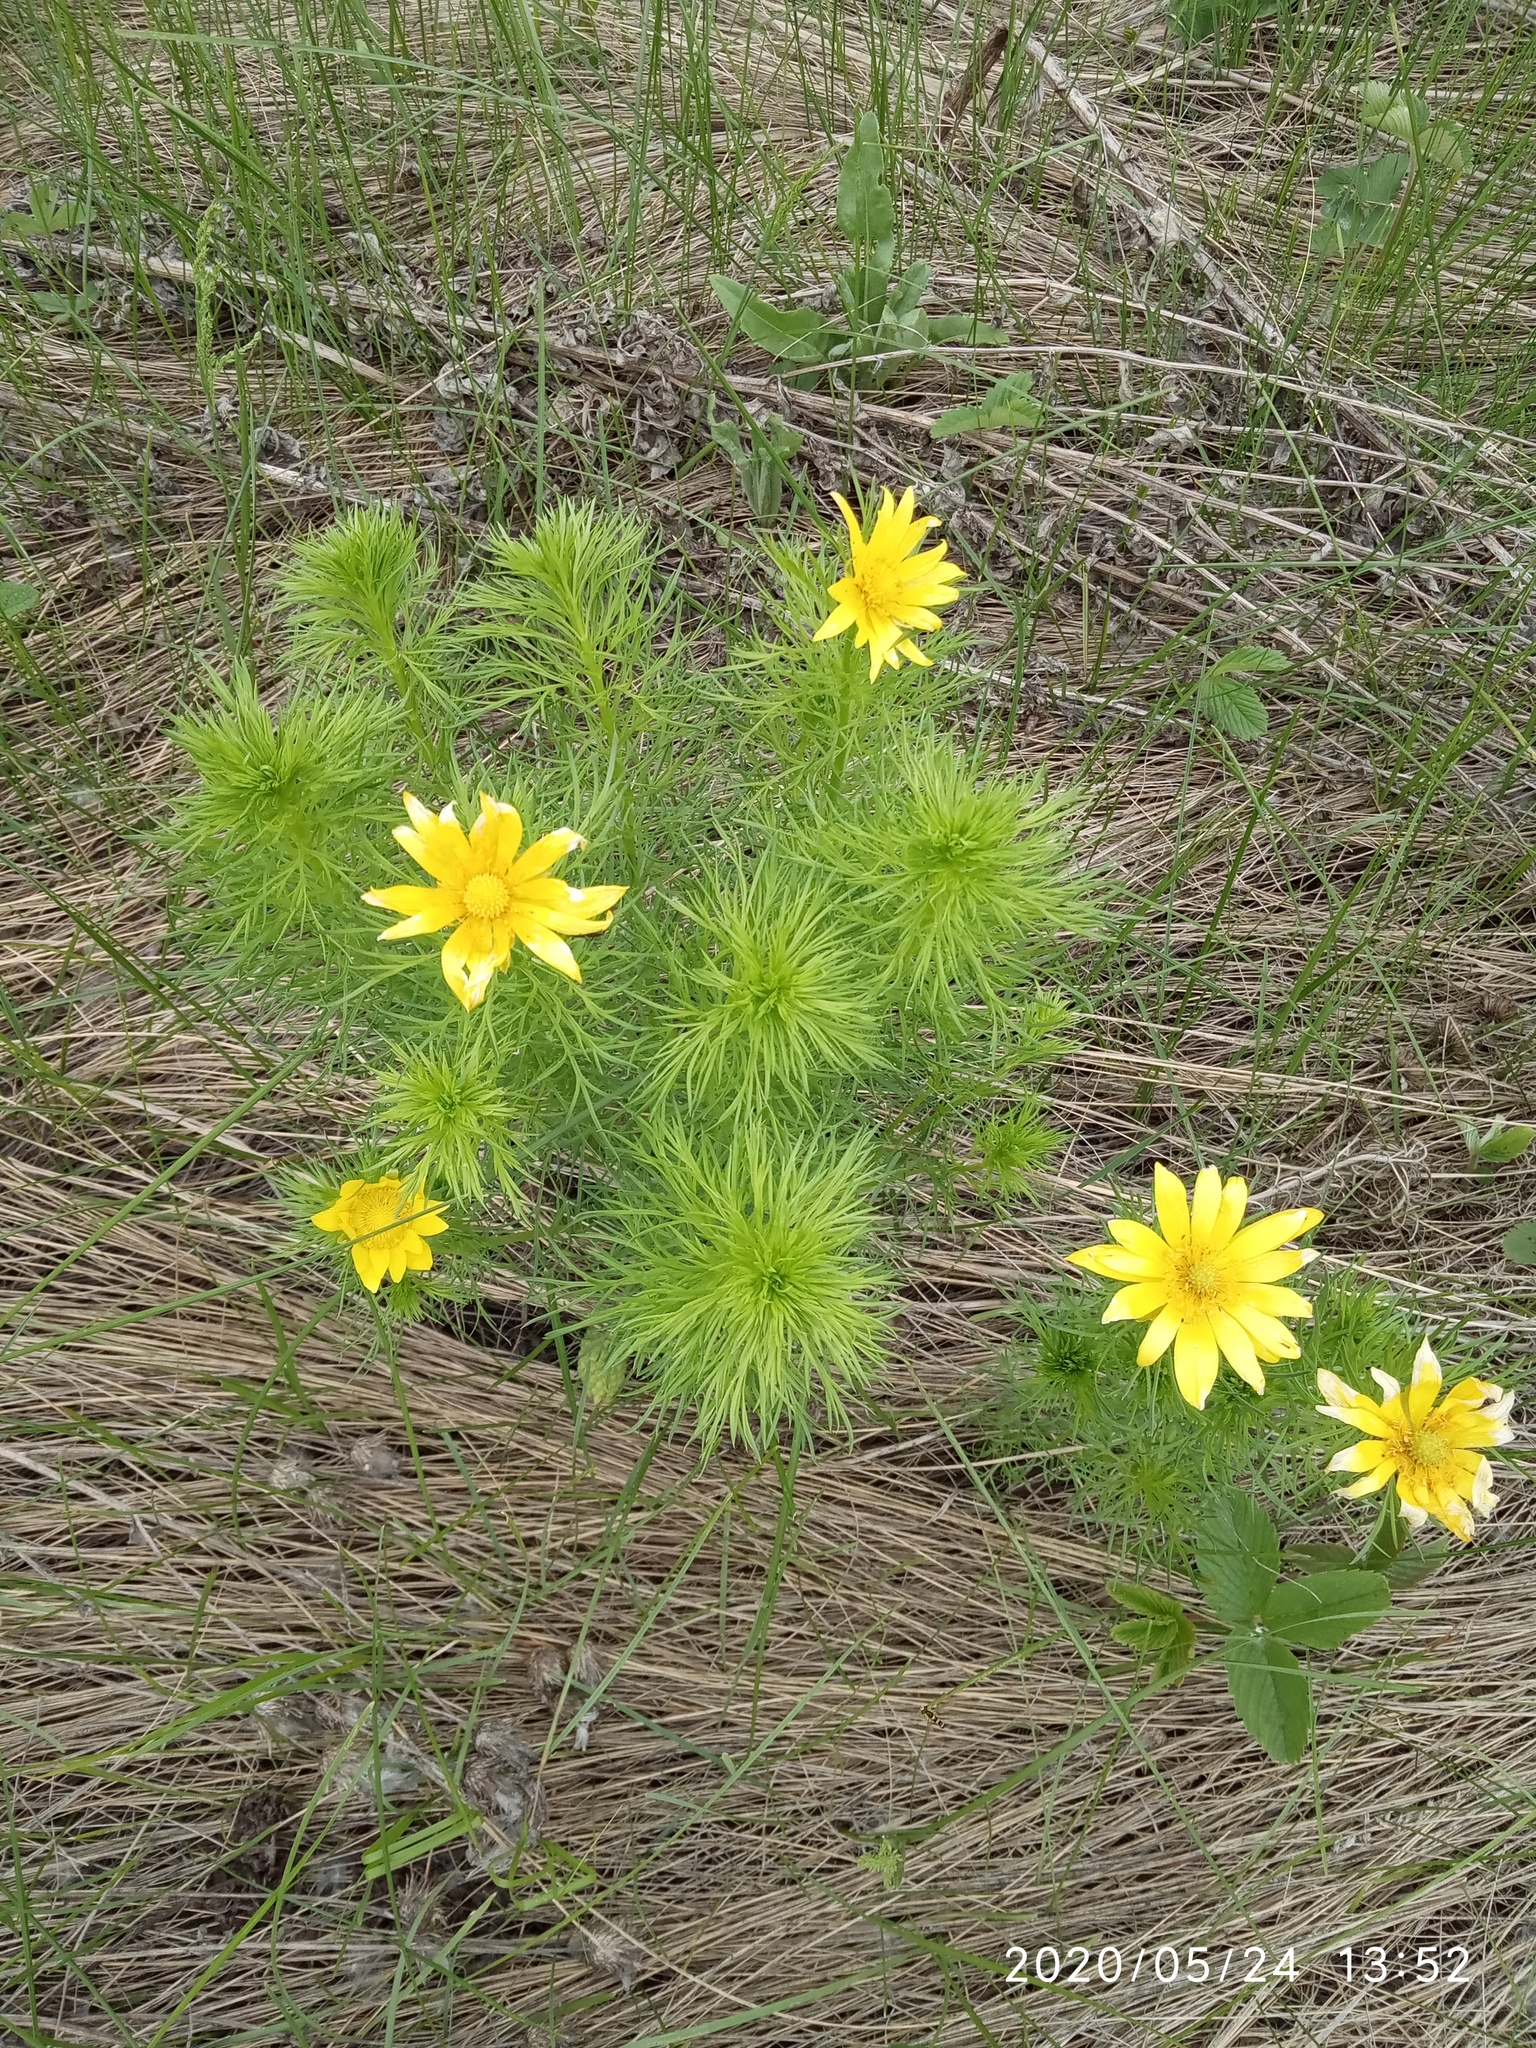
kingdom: Plantae
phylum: Tracheophyta
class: Magnoliopsida
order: Ranunculales
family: Ranunculaceae
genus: Adonis
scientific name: Adonis vernalis
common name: Yellow pheasants-eye
